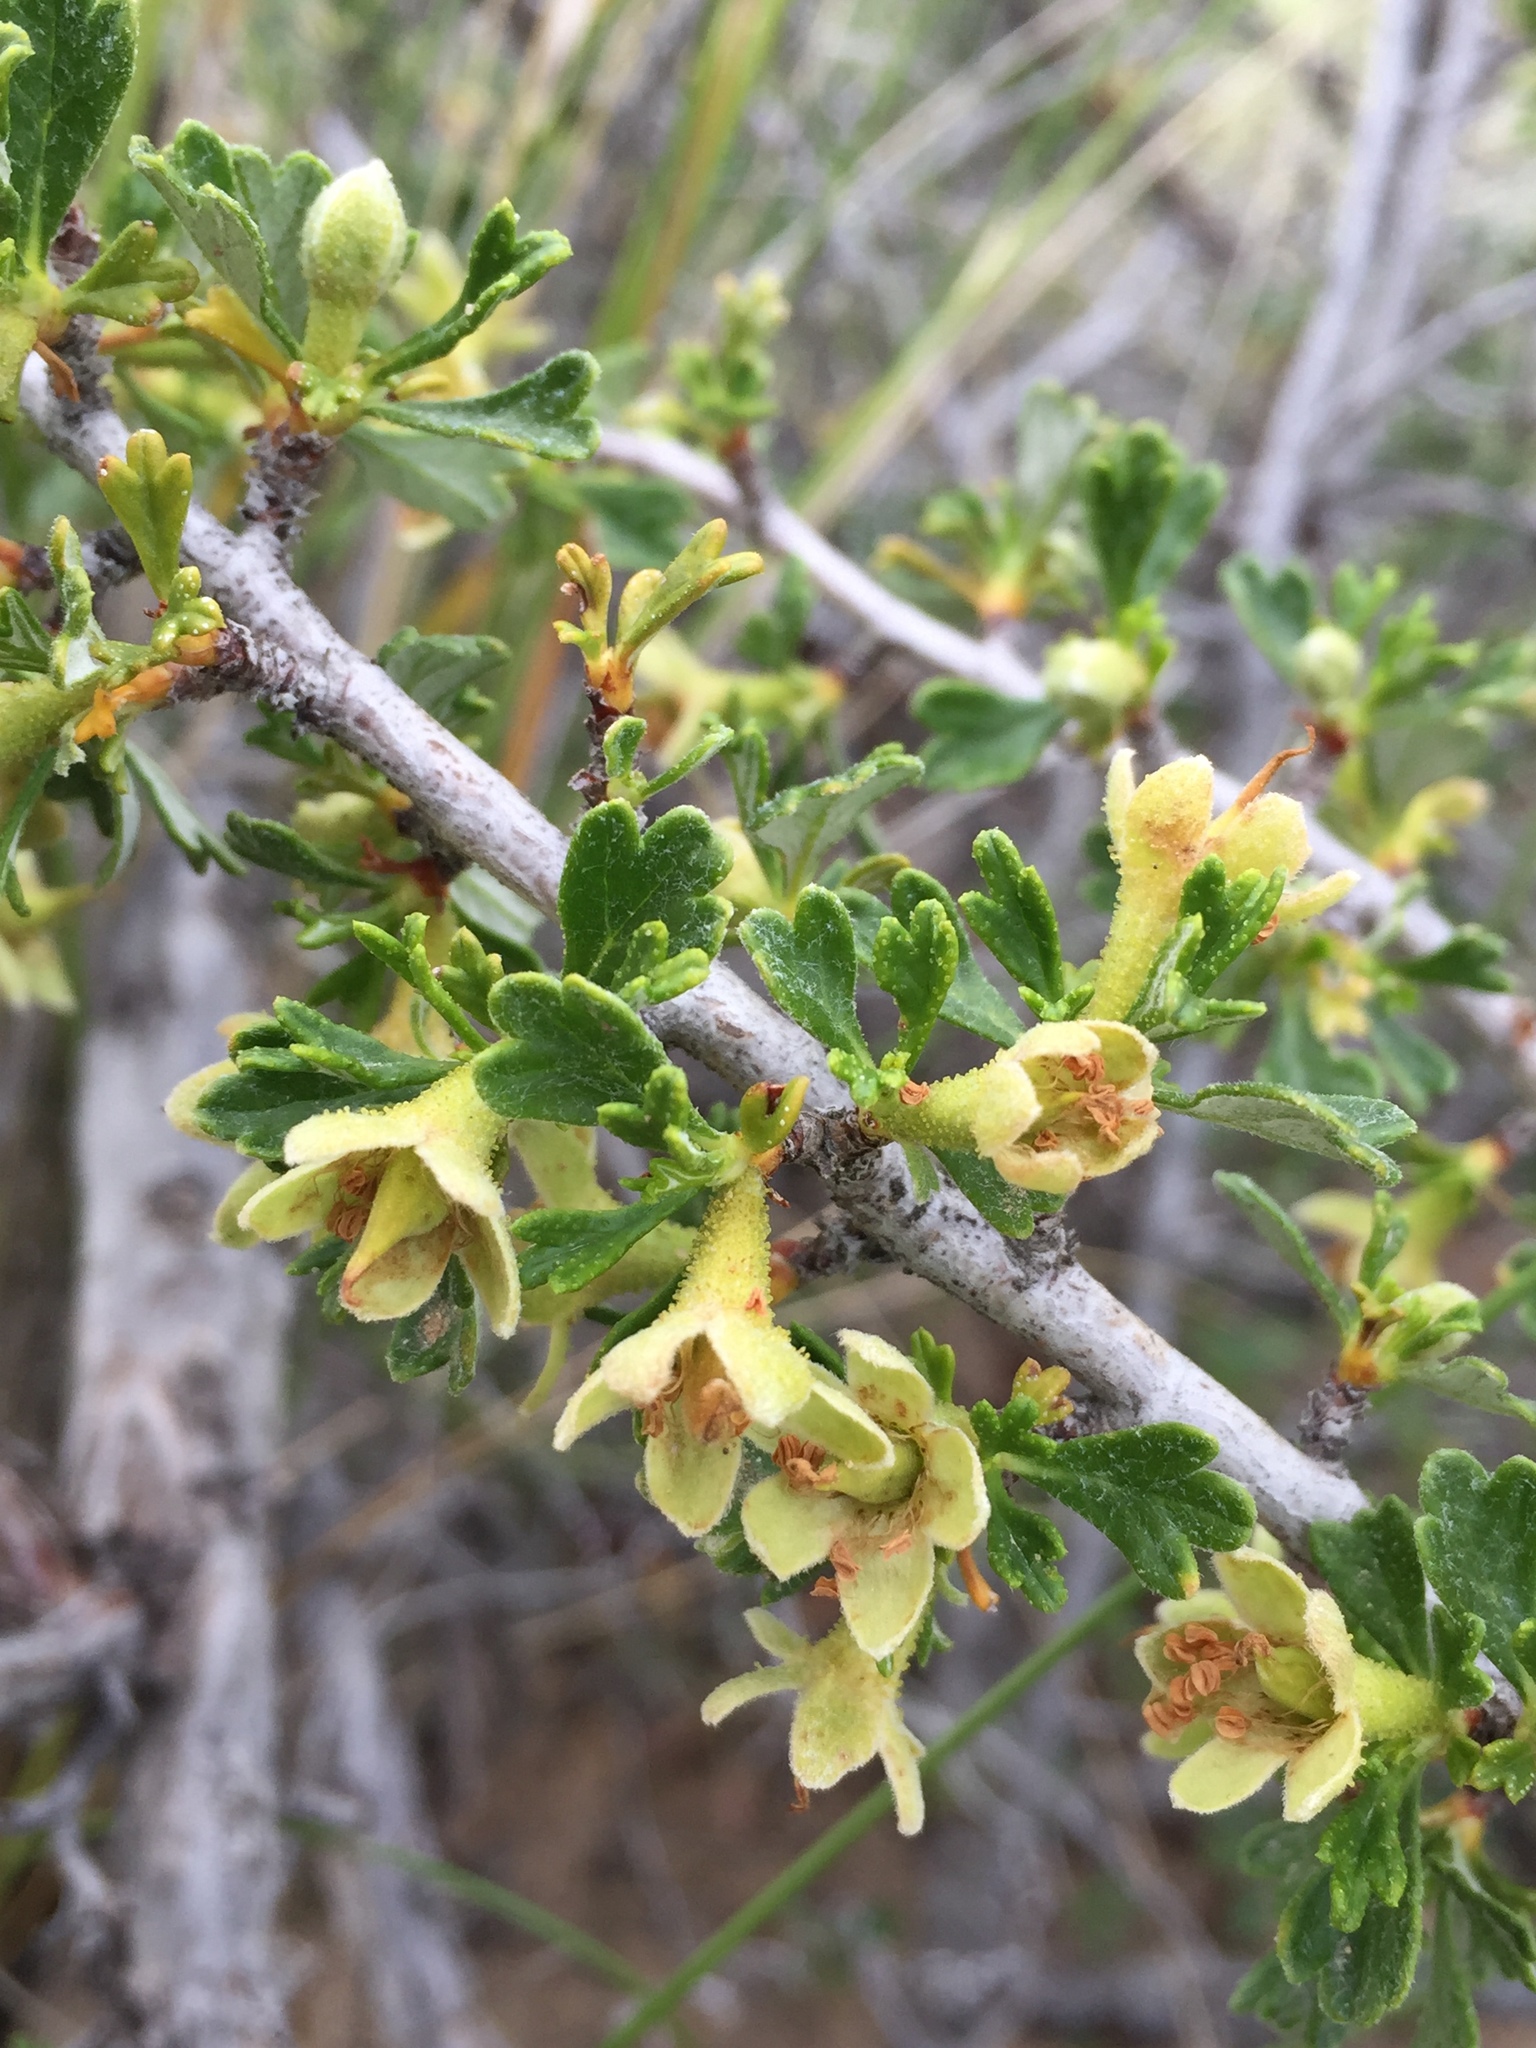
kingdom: Plantae
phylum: Tracheophyta
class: Magnoliopsida
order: Rosales
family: Rosaceae
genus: Purshia
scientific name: Purshia tridentata
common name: Antelope bitterbrush
